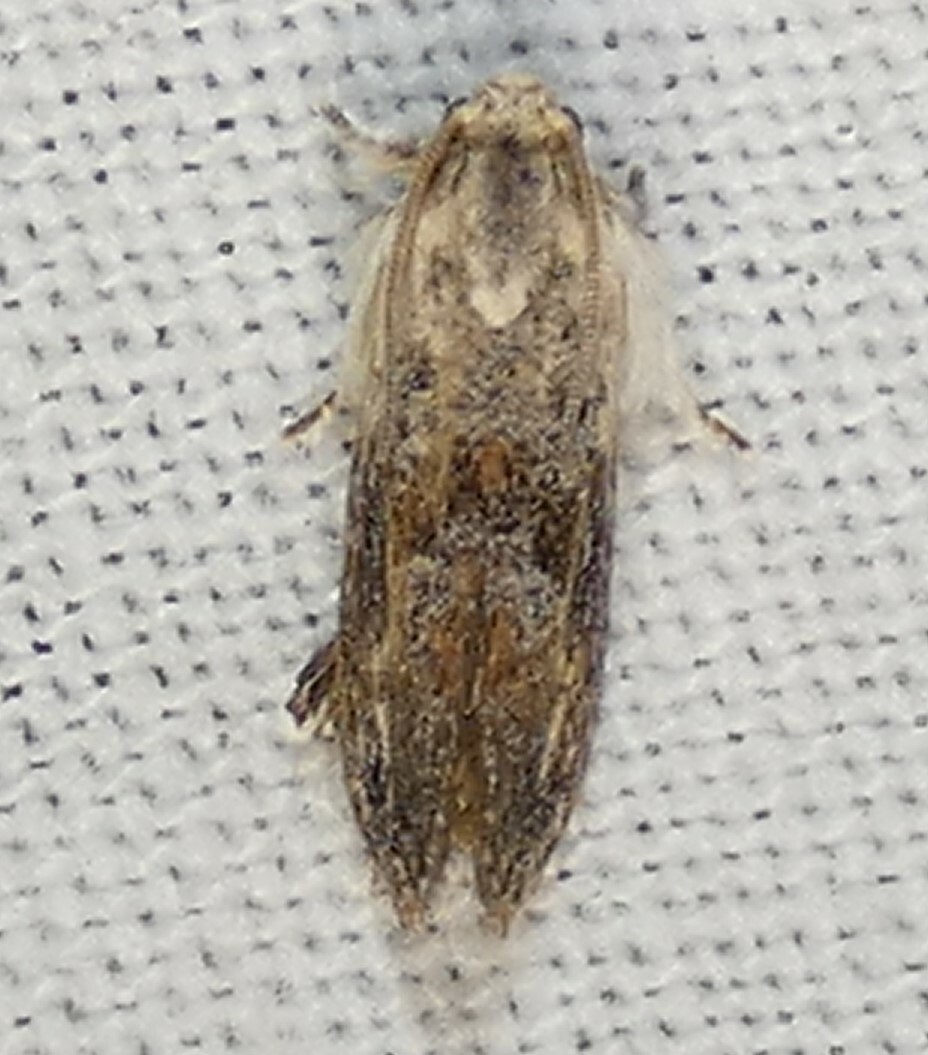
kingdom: Animalia
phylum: Arthropoda
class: Insecta
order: Lepidoptera
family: Tineidae
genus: Acrolophus
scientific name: Acrolophus mycetophagus
